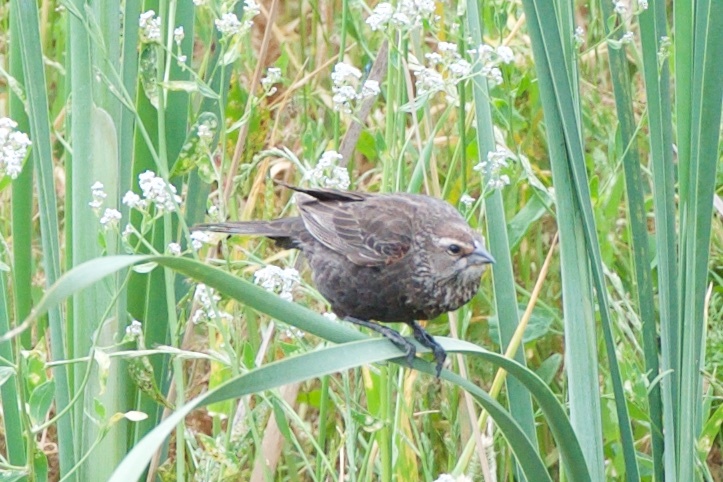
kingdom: Animalia
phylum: Chordata
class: Aves
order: Passeriformes
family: Icteridae
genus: Agelaius
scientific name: Agelaius phoeniceus
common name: Red-winged blackbird
